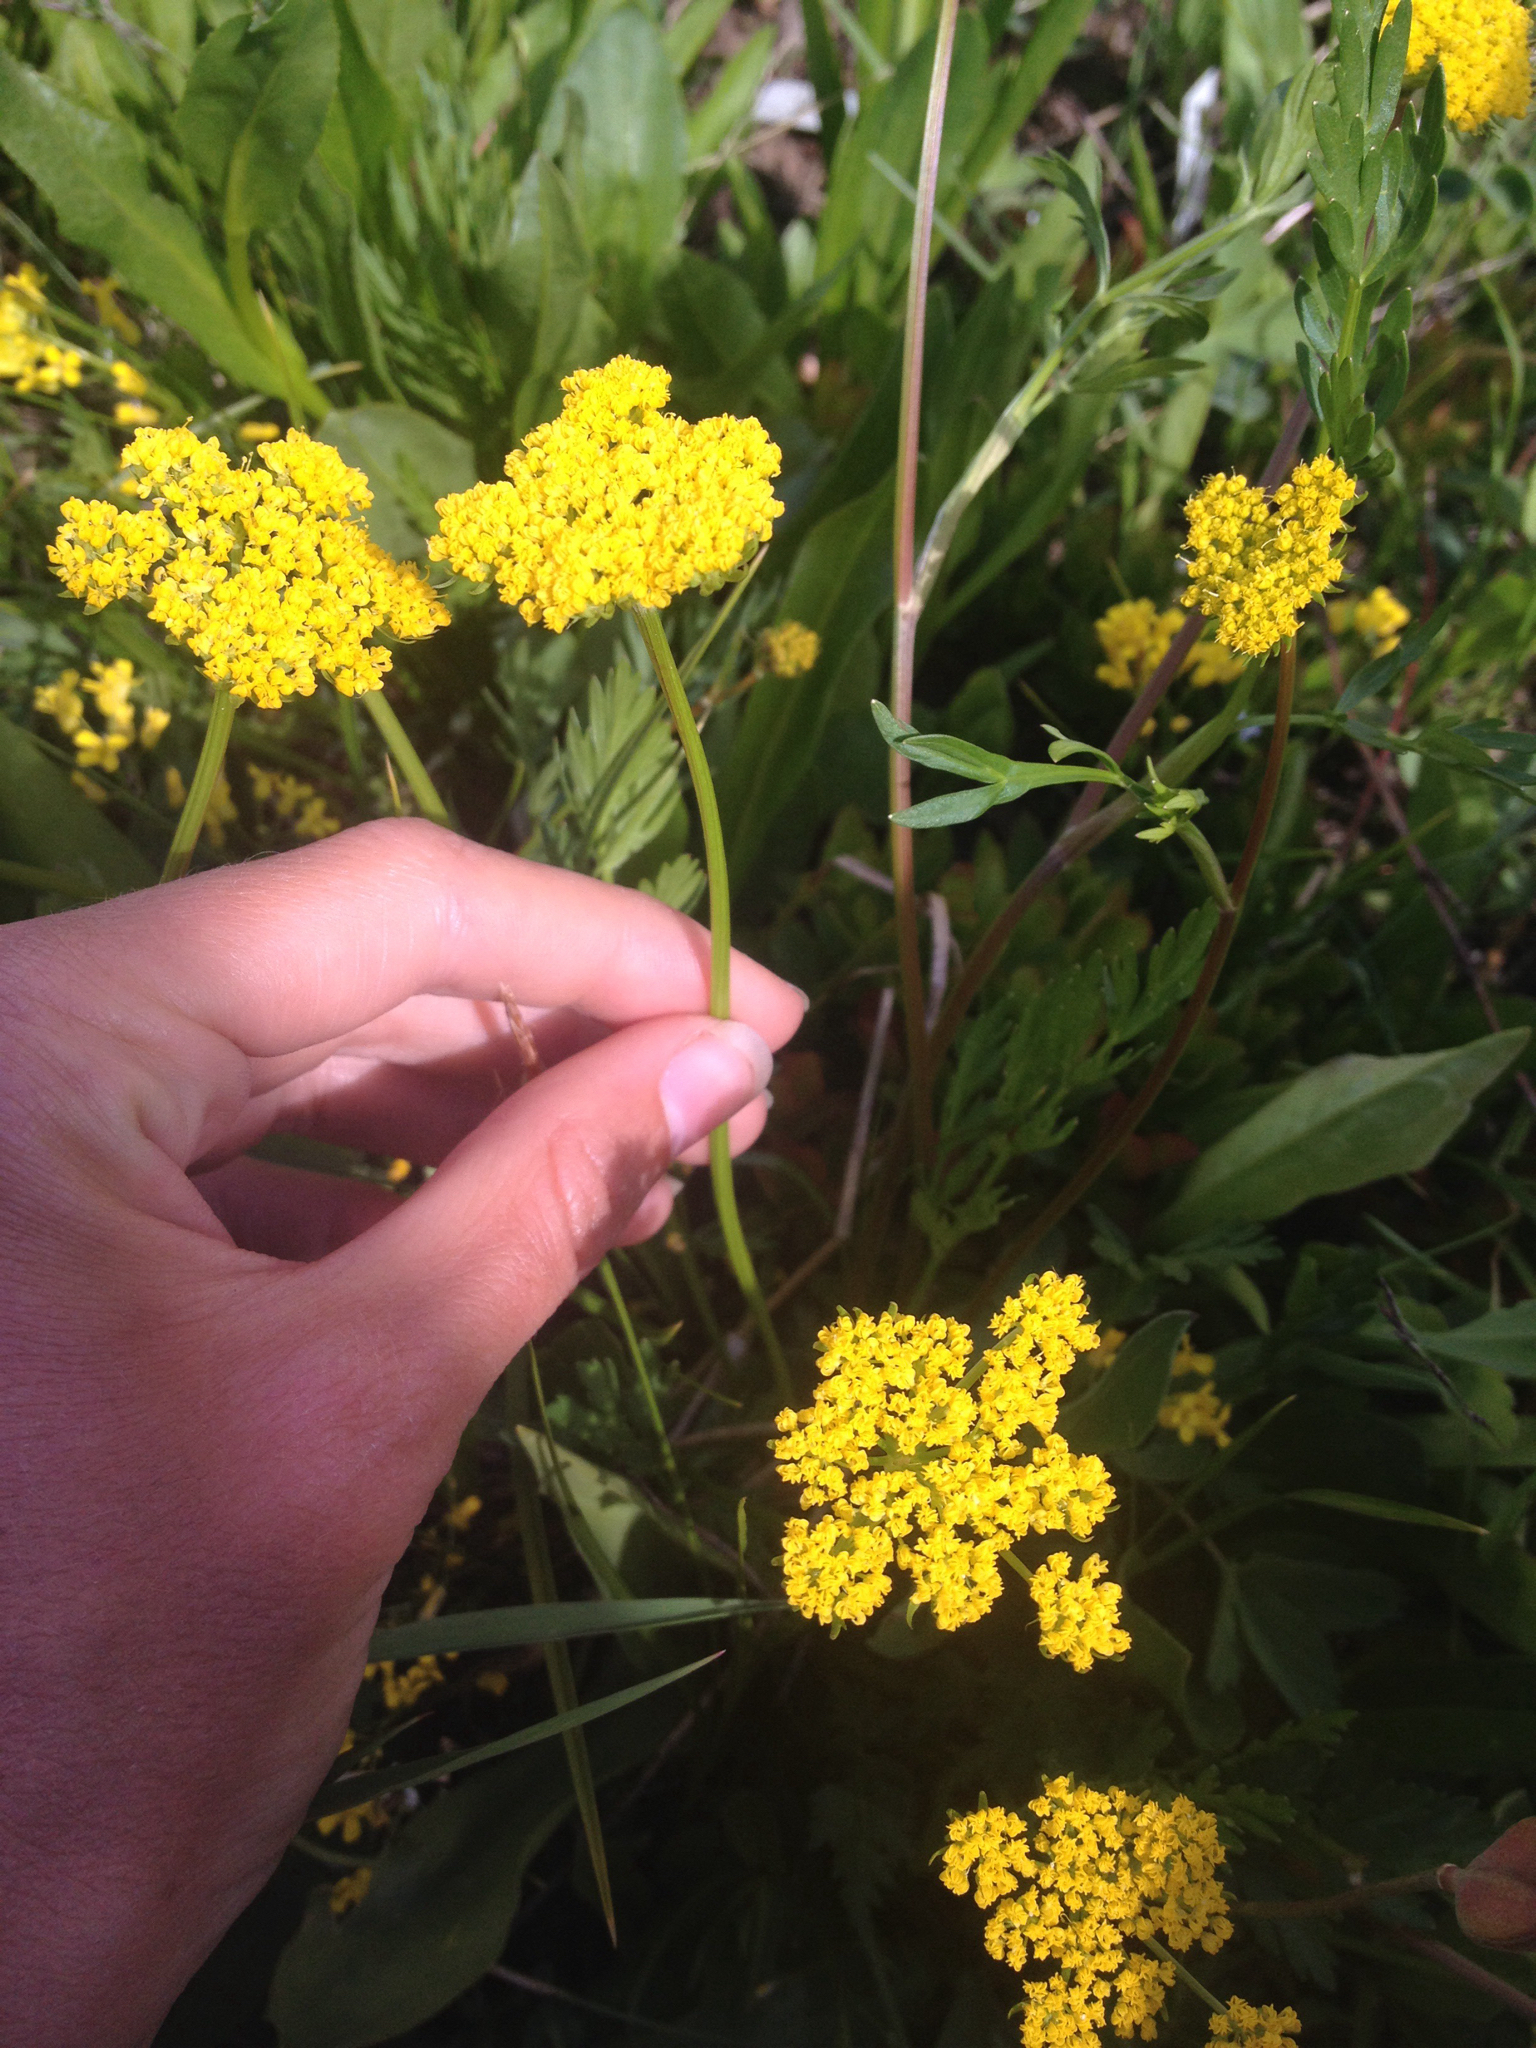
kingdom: Plantae
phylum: Tracheophyta
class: Magnoliopsida
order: Apiales
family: Apiaceae
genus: Cymopterus
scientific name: Cymopterus lemmonii
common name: Lemmon's spring-parsley
